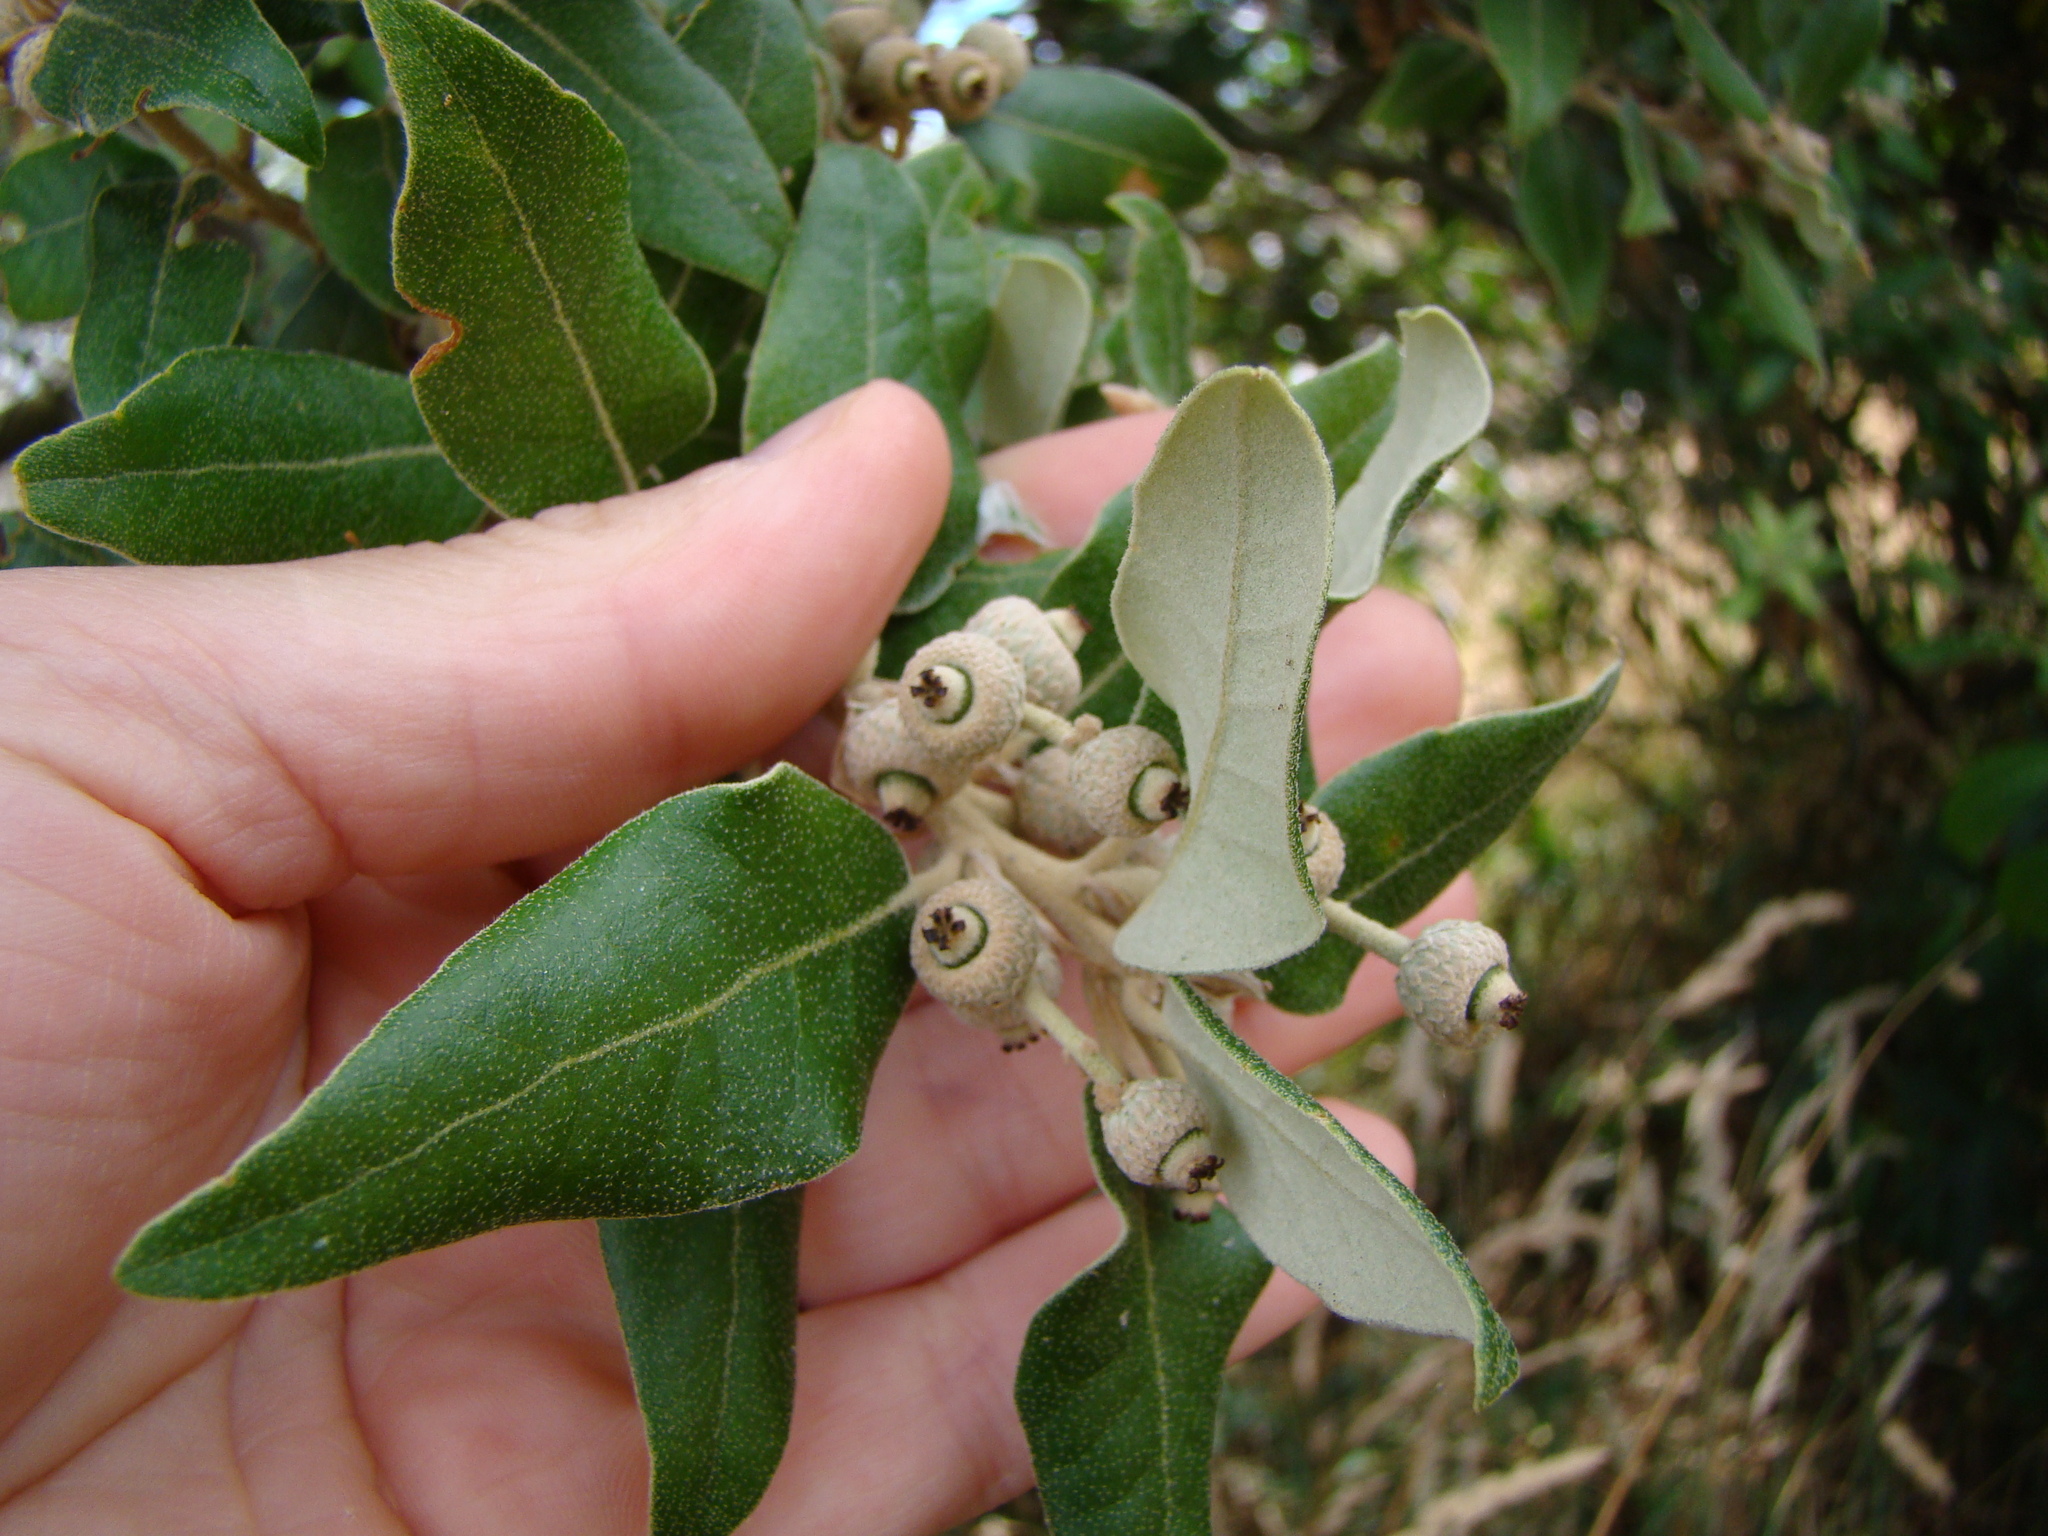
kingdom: Plantae
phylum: Tracheophyta
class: Magnoliopsida
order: Fagales
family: Fagaceae
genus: Quercus
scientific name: Quercus ilex
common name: Evergreen oak
